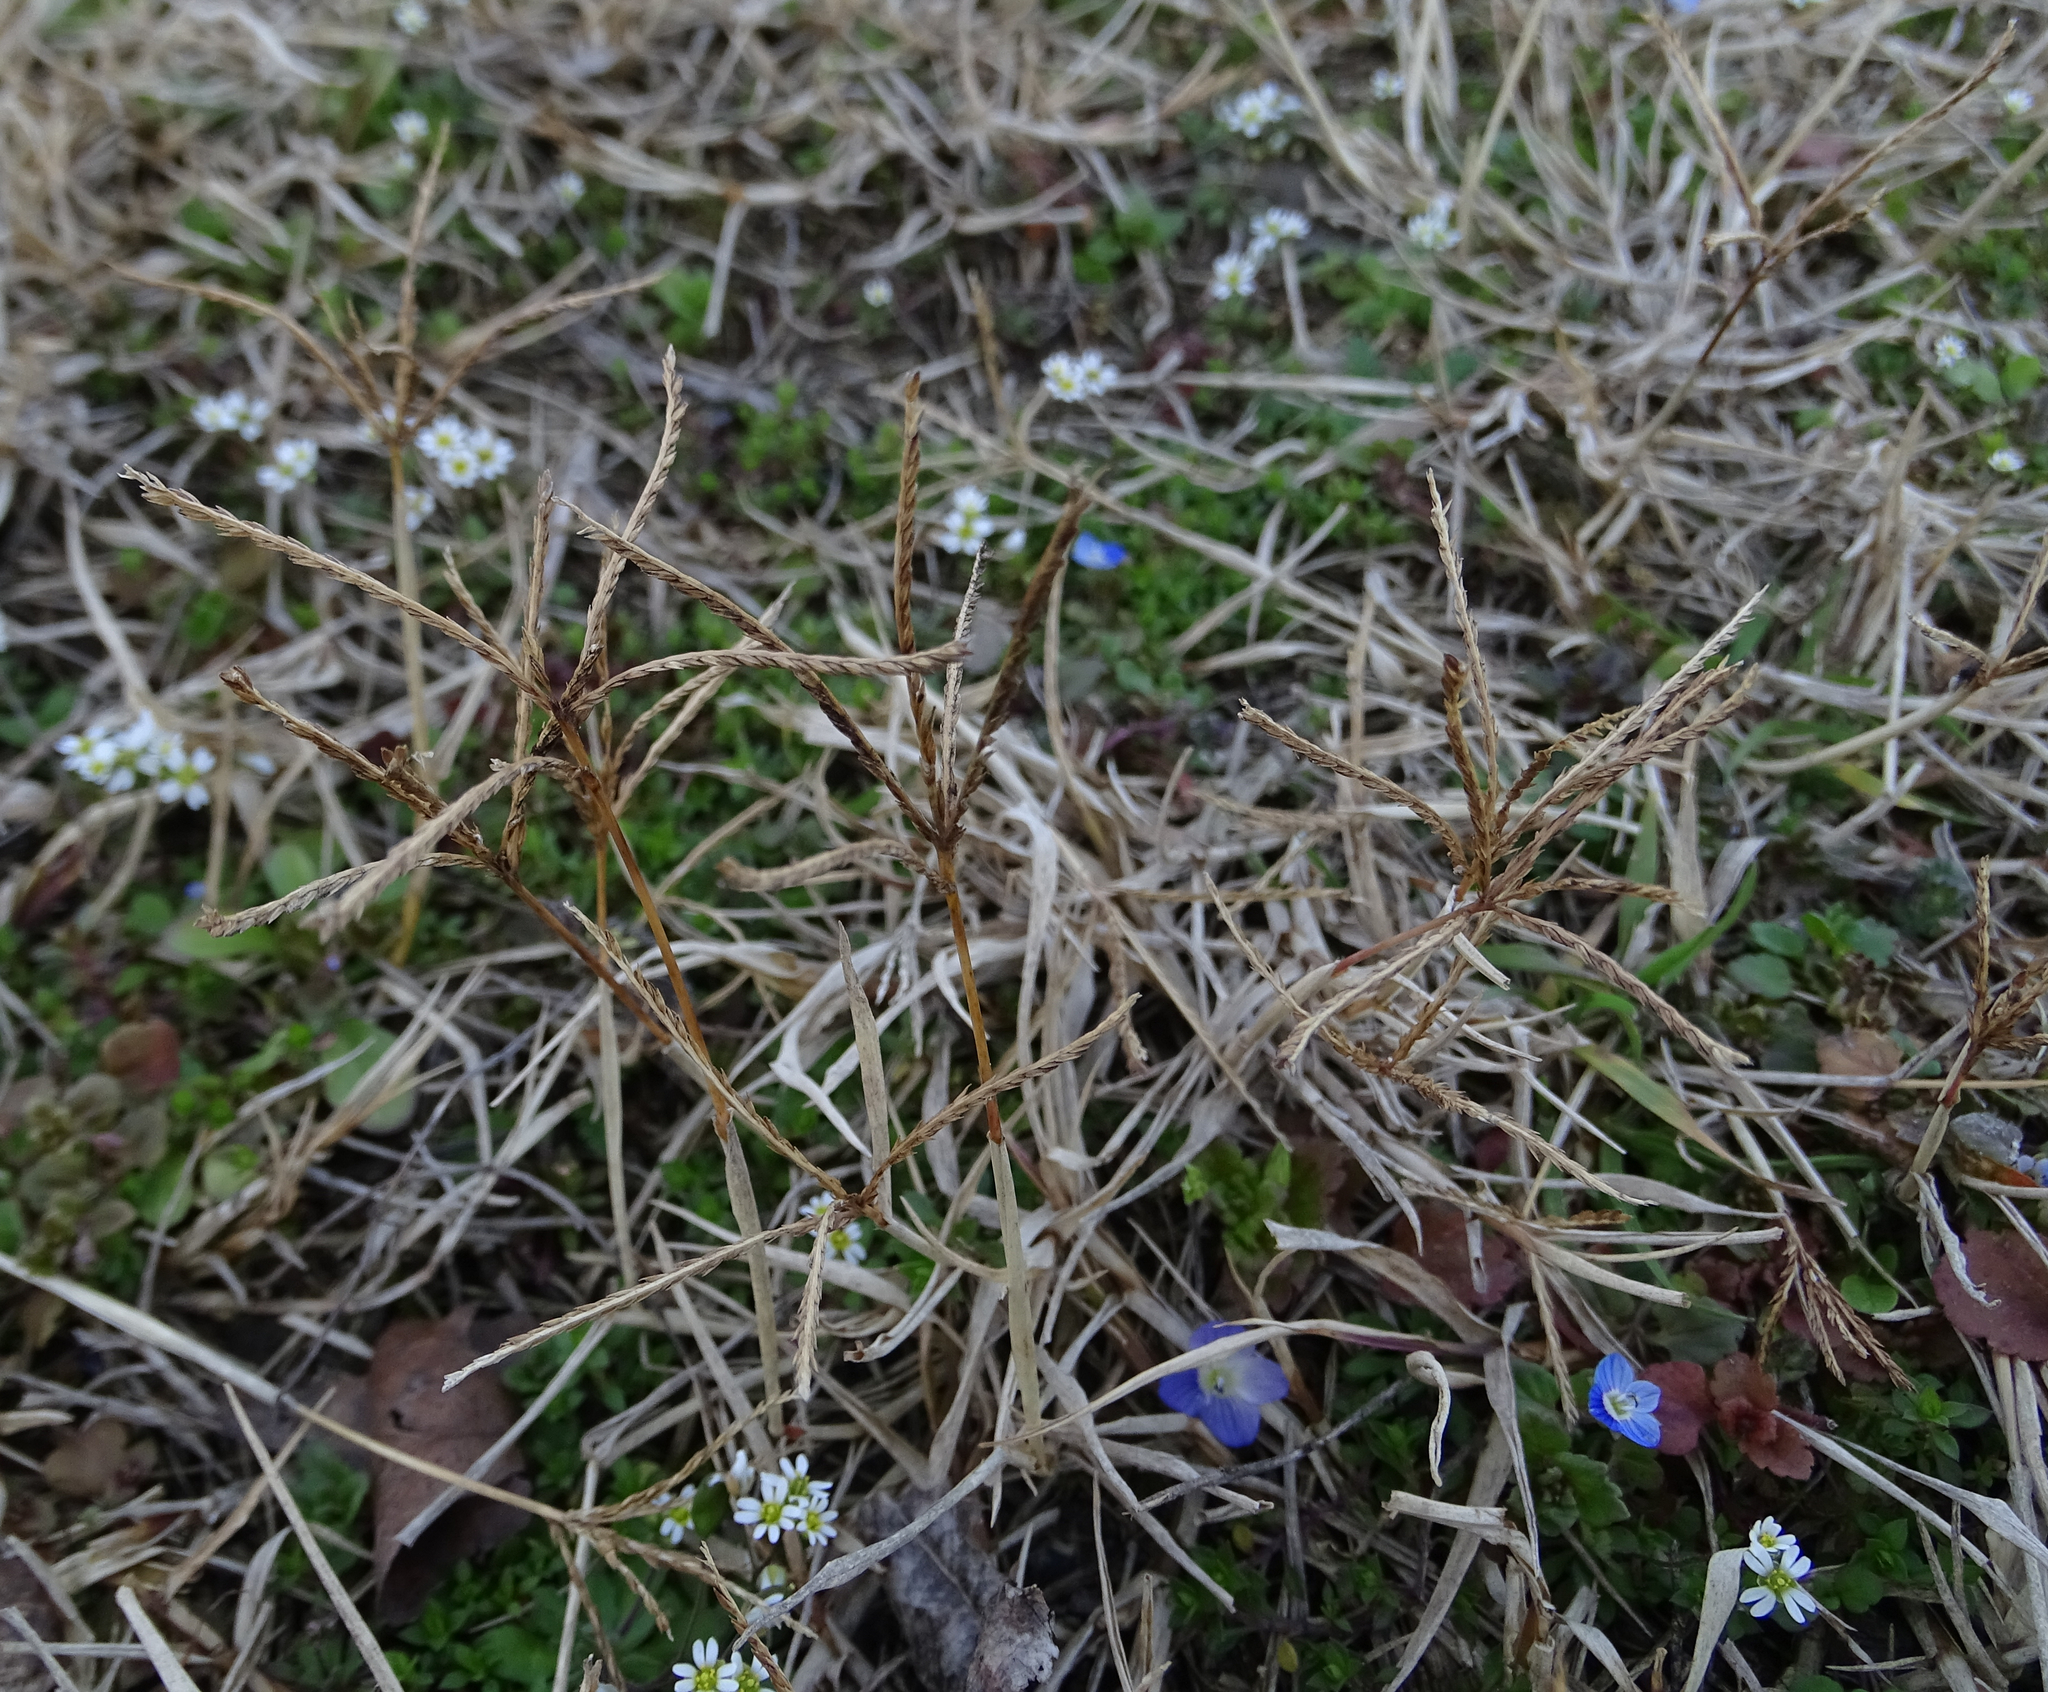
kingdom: Plantae
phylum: Tracheophyta
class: Liliopsida
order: Poales
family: Poaceae
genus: Cynodon
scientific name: Cynodon dactylon
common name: Bermuda grass
